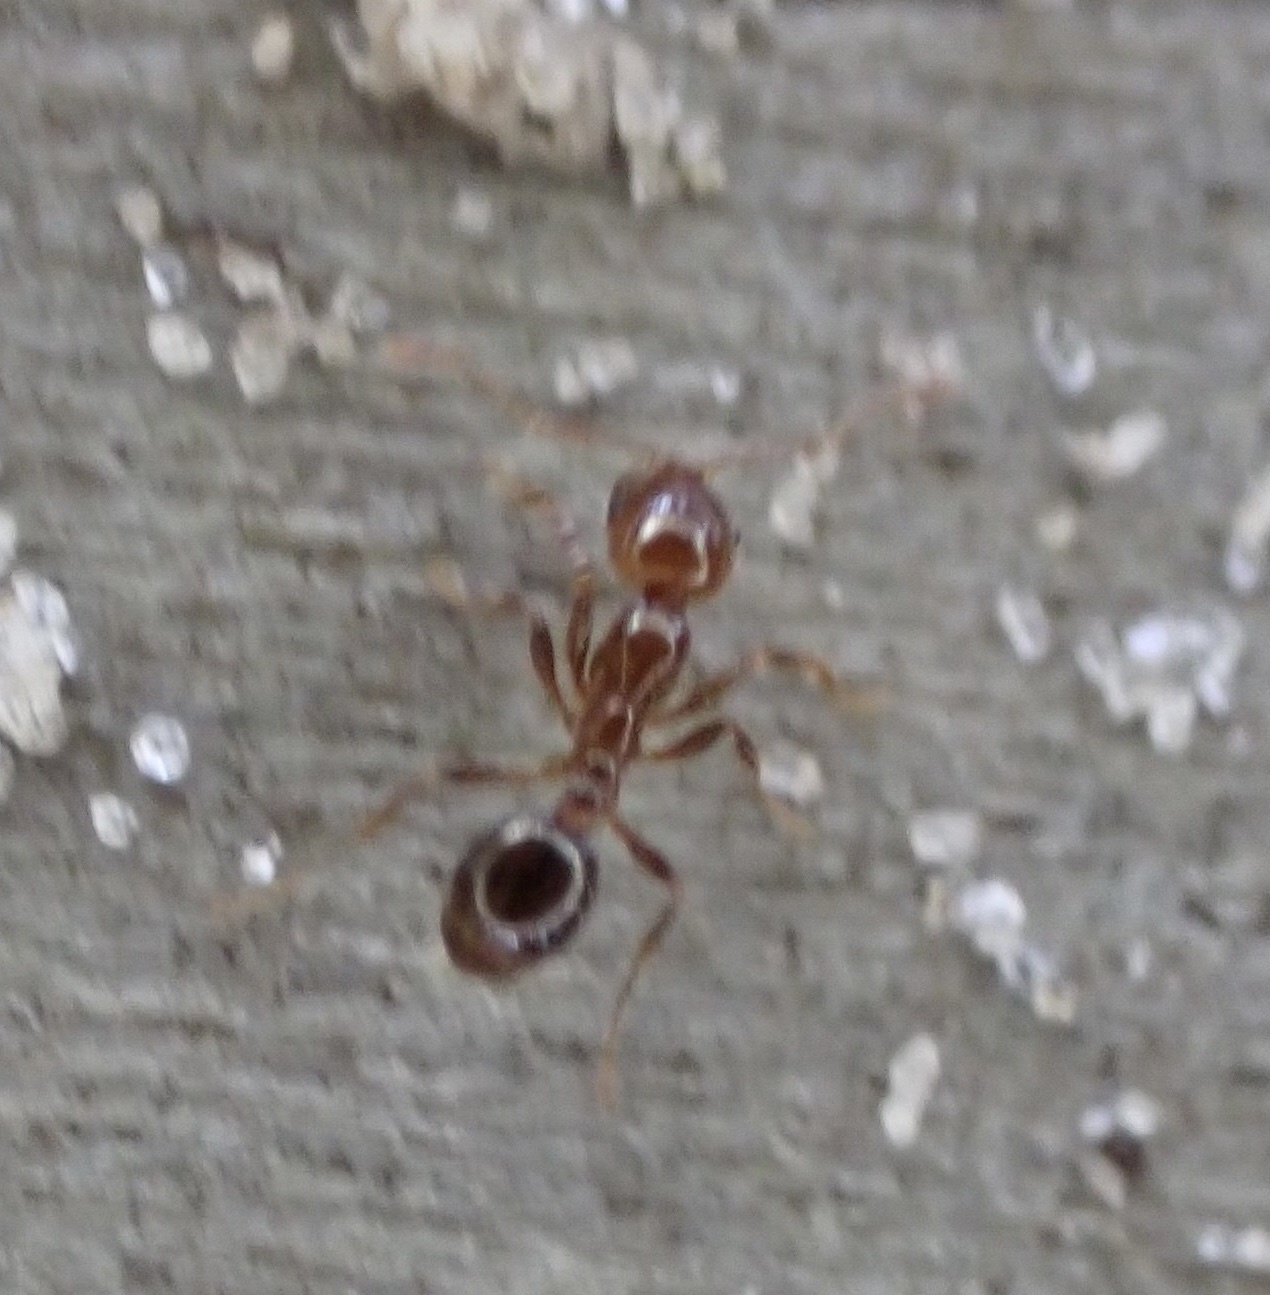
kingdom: Animalia
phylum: Arthropoda
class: Insecta
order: Hymenoptera
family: Formicidae
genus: Solenopsis
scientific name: Solenopsis invicta
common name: Red imported fire ant
